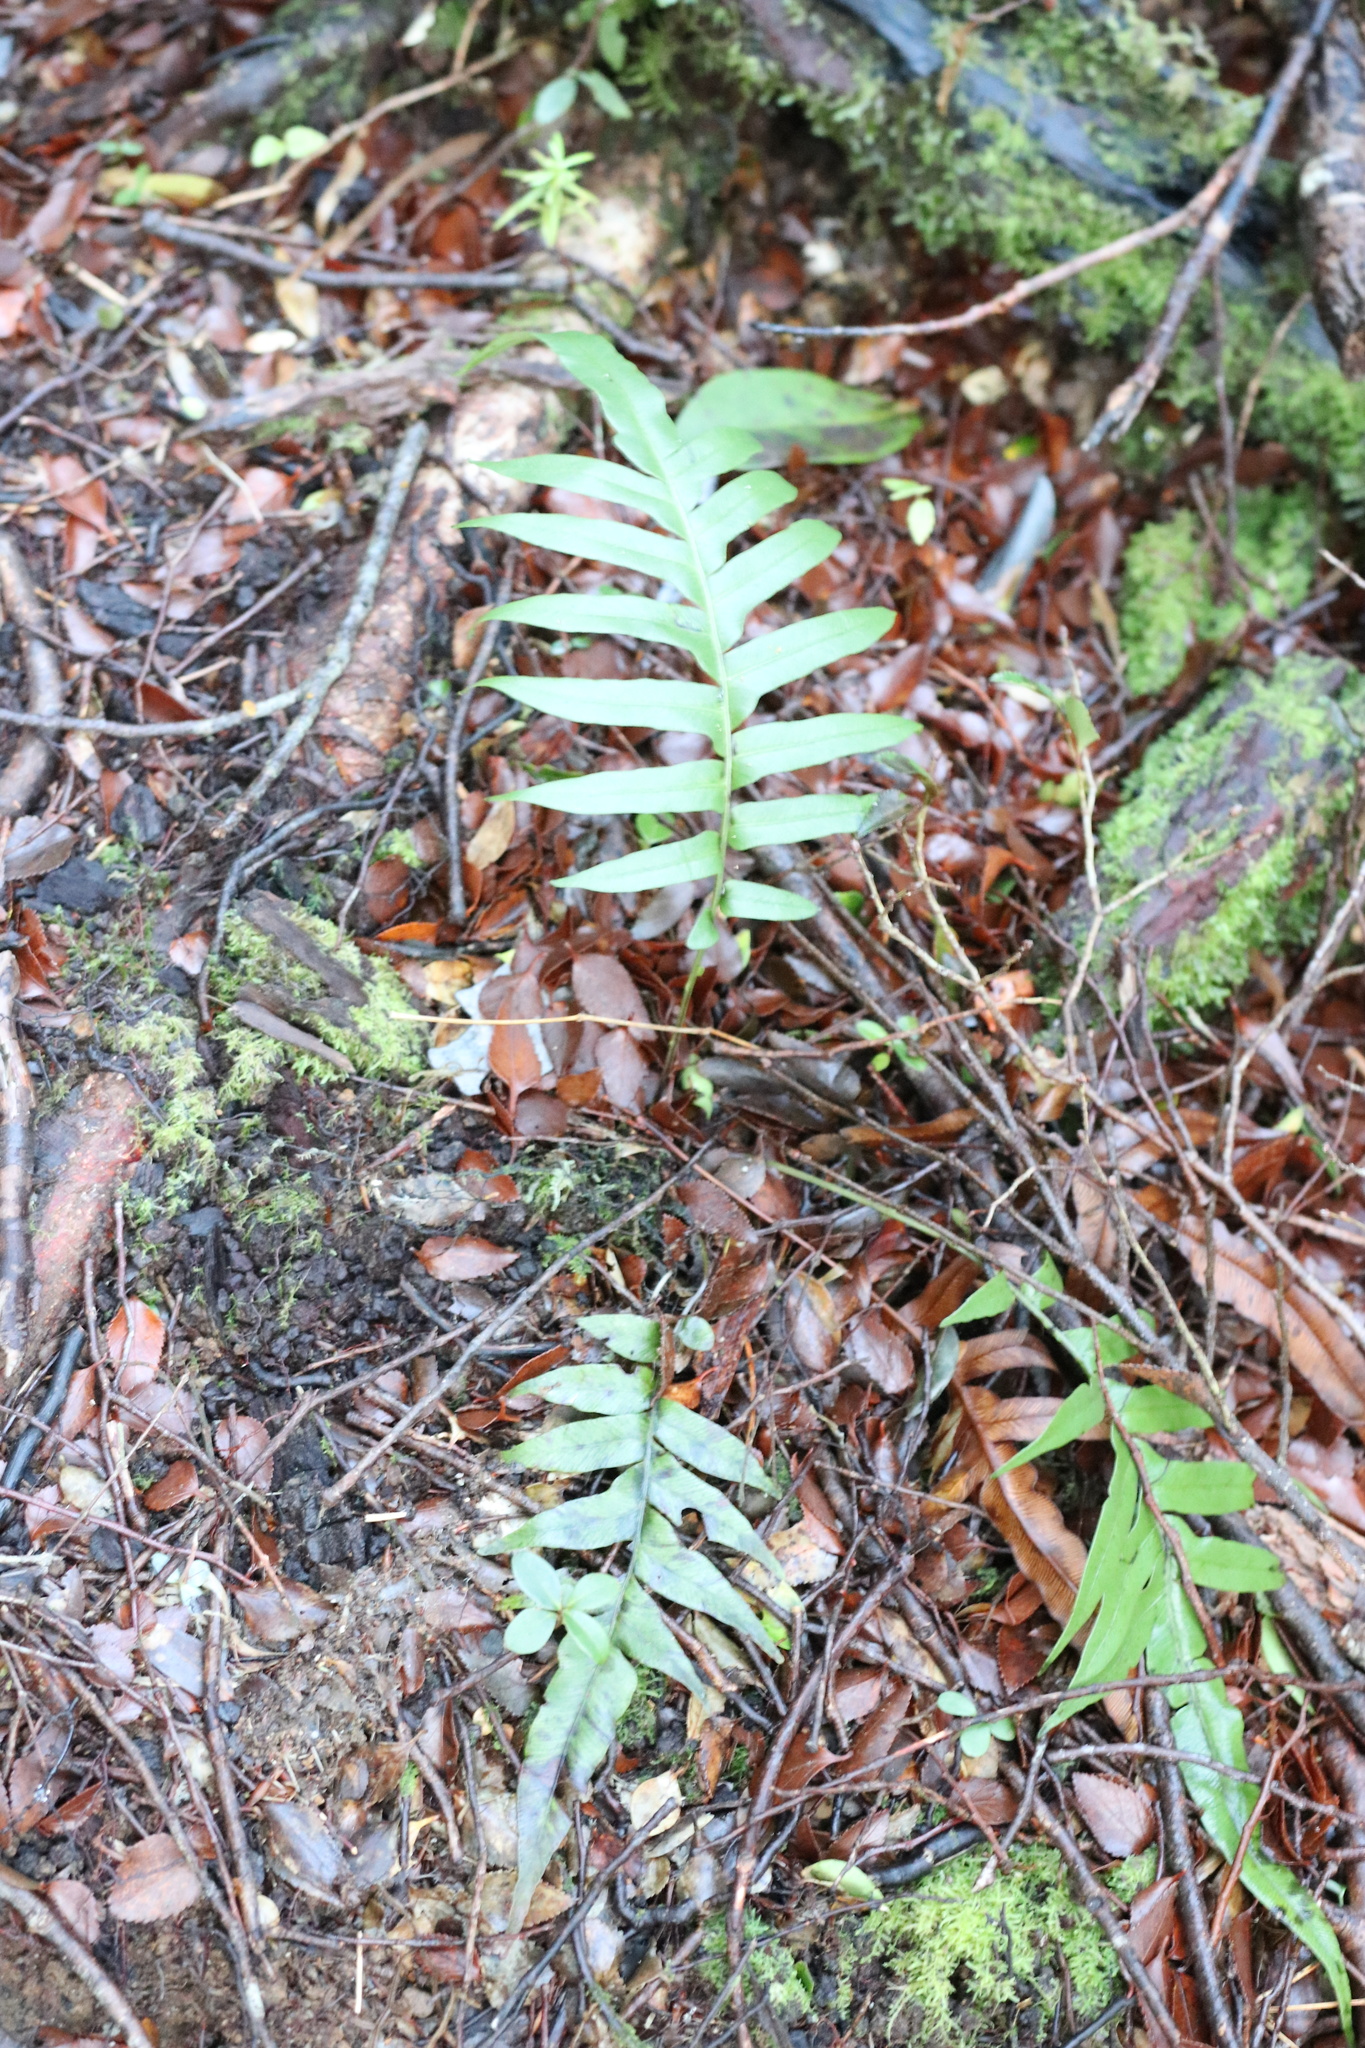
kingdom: Plantae
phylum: Tracheophyta
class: Polypodiopsida
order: Polypodiales
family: Blechnaceae
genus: Lomariocycas
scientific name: Lomariocycas magellanica
